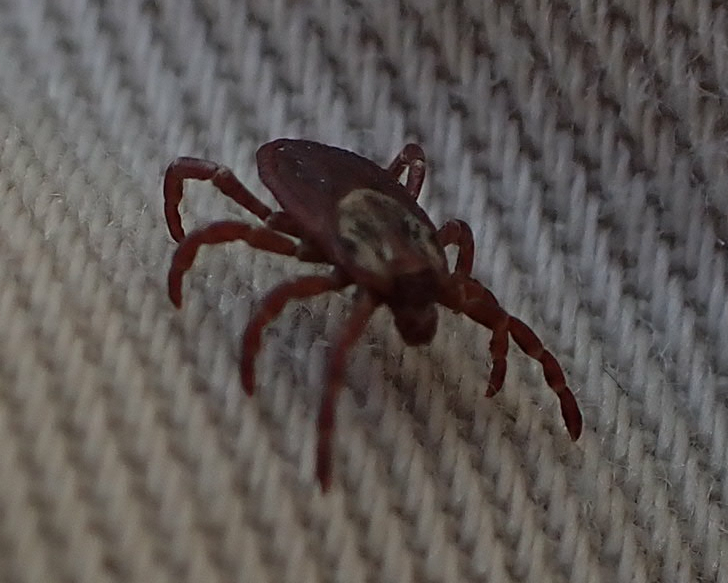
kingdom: Animalia
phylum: Arthropoda
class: Arachnida
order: Ixodida
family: Ixodidae
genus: Dermacentor
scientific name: Dermacentor variabilis
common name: American dog tick
